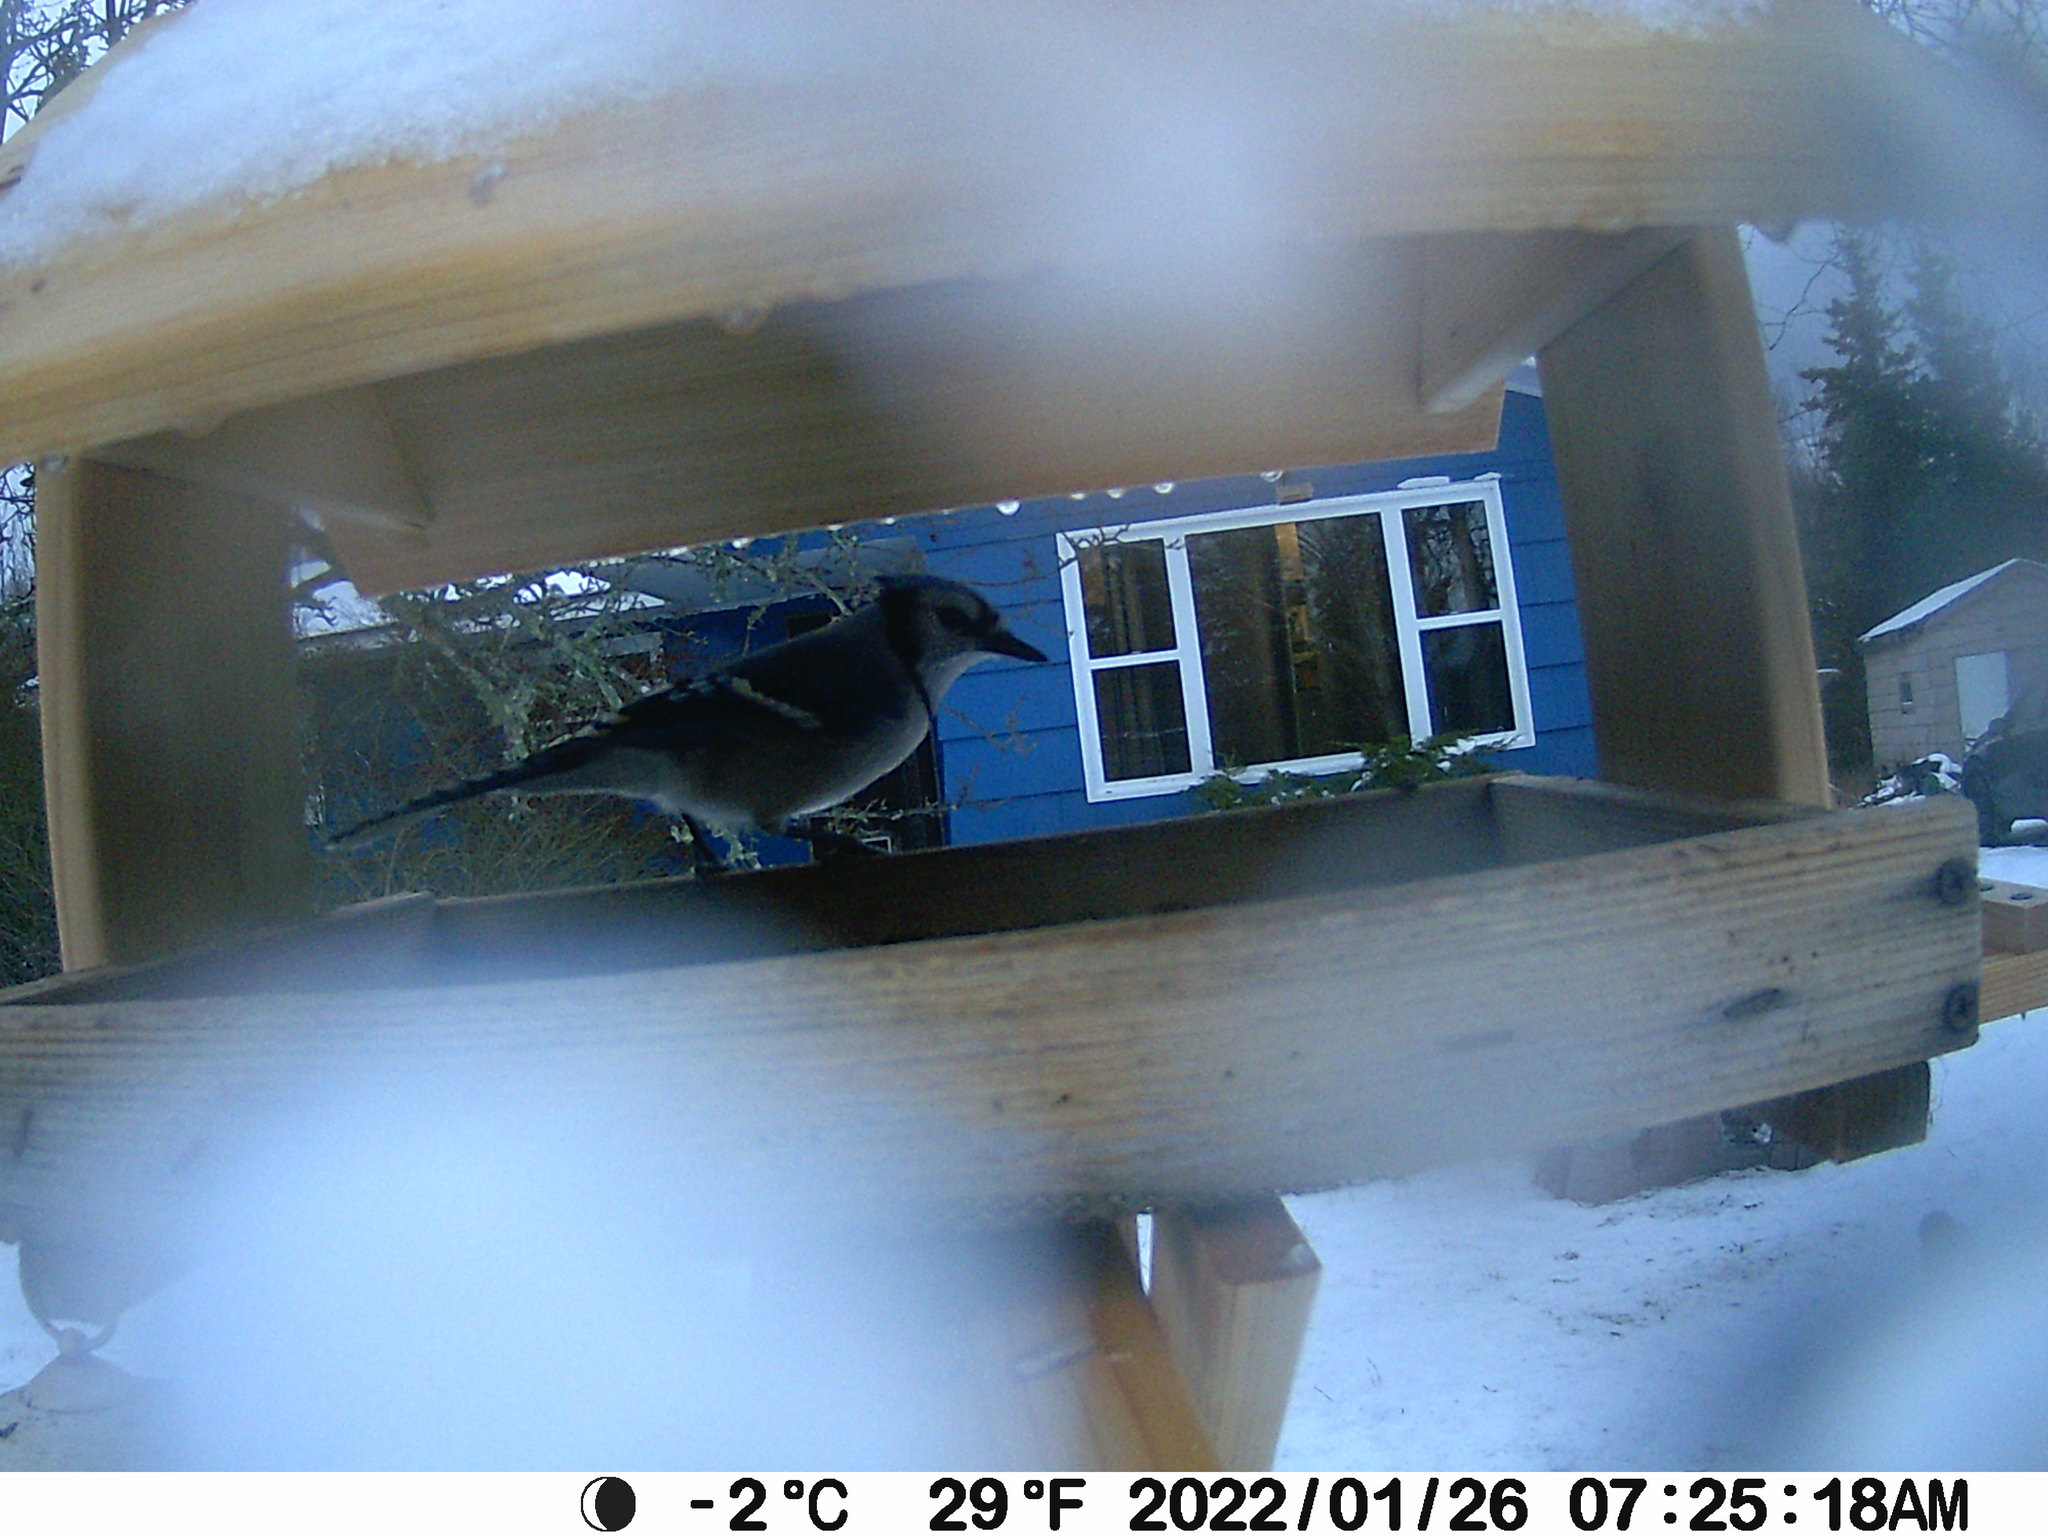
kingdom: Animalia
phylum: Chordata
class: Aves
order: Passeriformes
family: Corvidae
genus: Cyanocitta
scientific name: Cyanocitta cristata
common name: Blue jay
